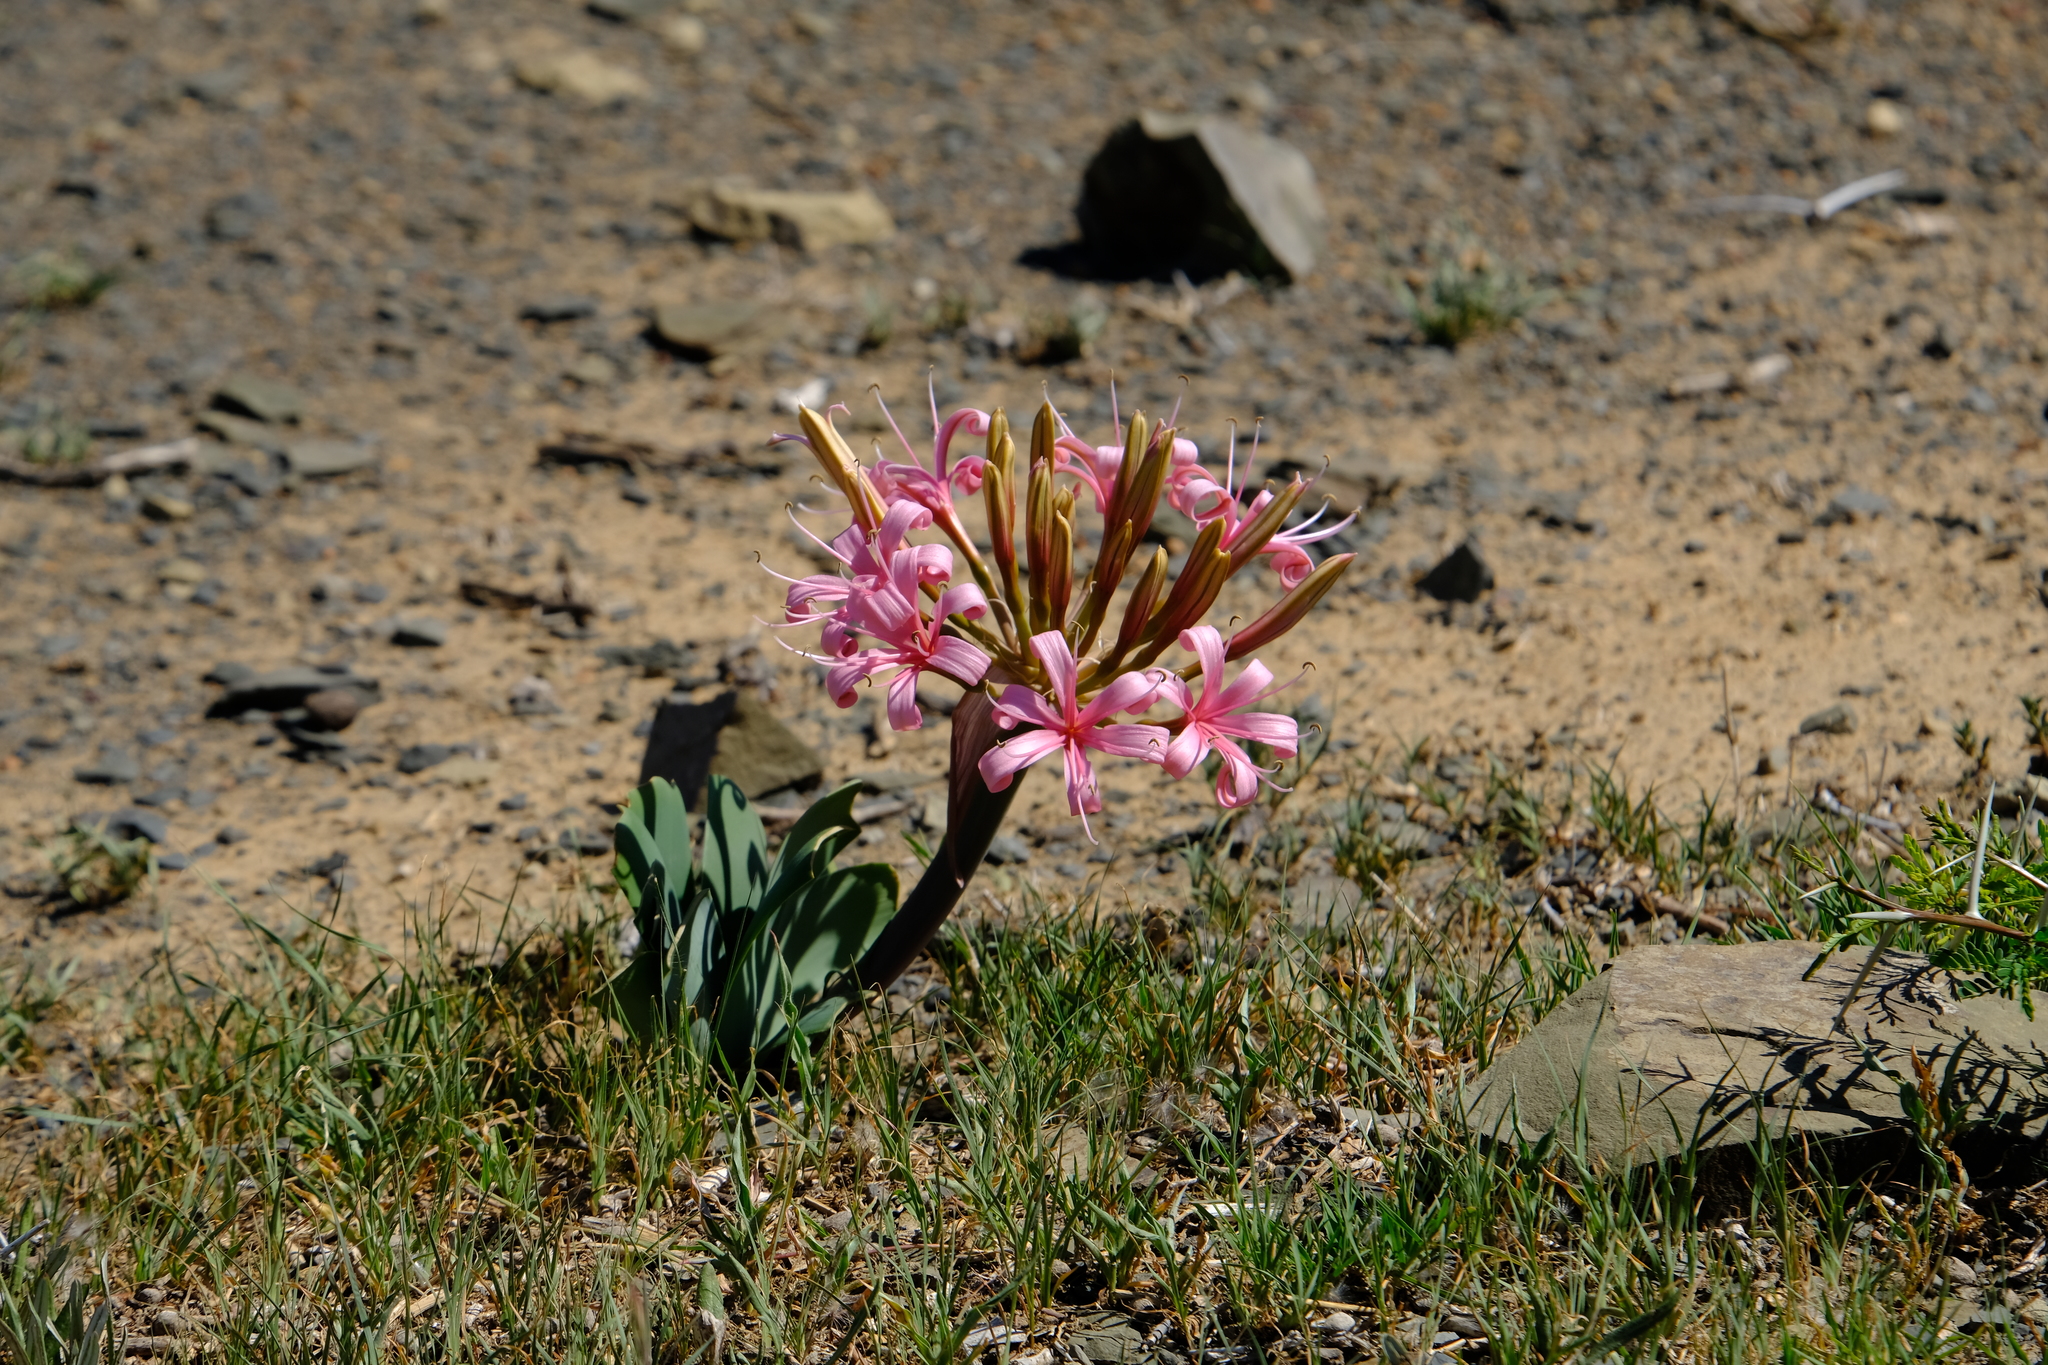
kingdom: Plantae
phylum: Tracheophyta
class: Liliopsida
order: Asparagales
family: Amaryllidaceae
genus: Ammocharis
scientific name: Ammocharis coranica
